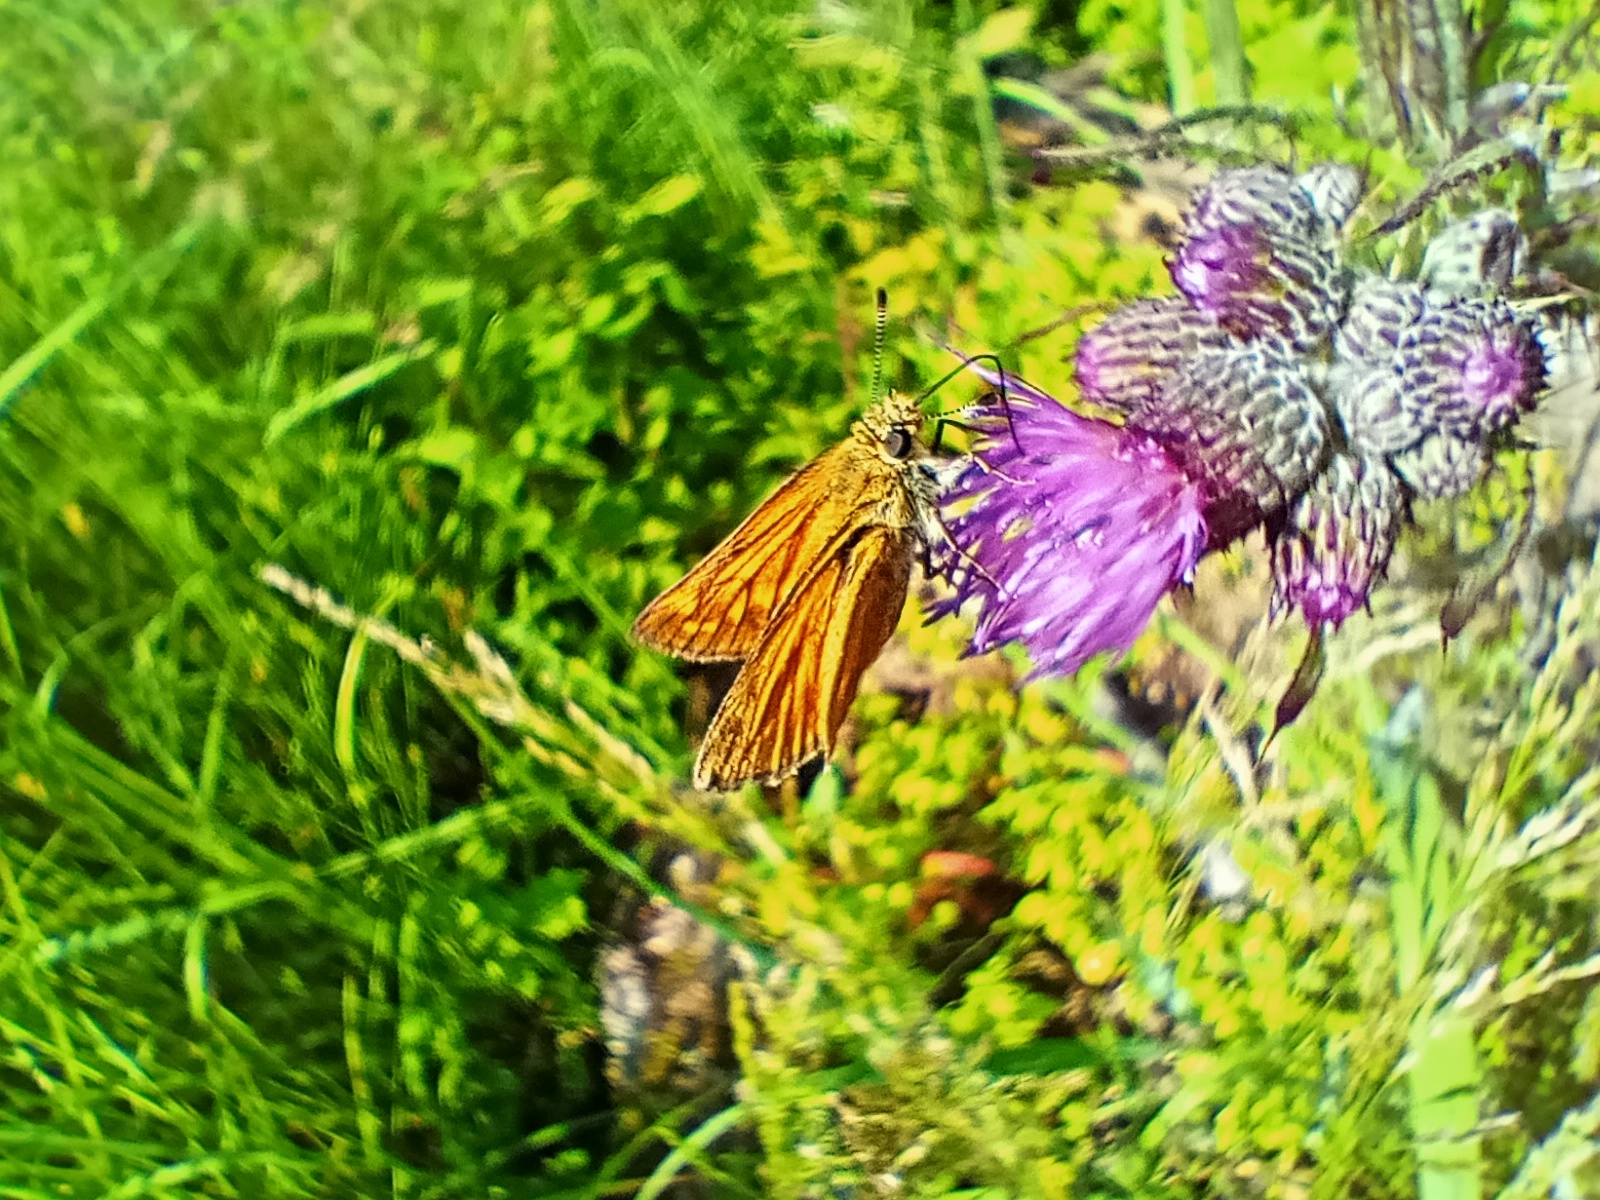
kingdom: Animalia
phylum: Arthropoda
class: Insecta
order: Lepidoptera
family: Hesperiidae
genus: Ochlodes
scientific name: Ochlodes venata
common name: Large skipper
